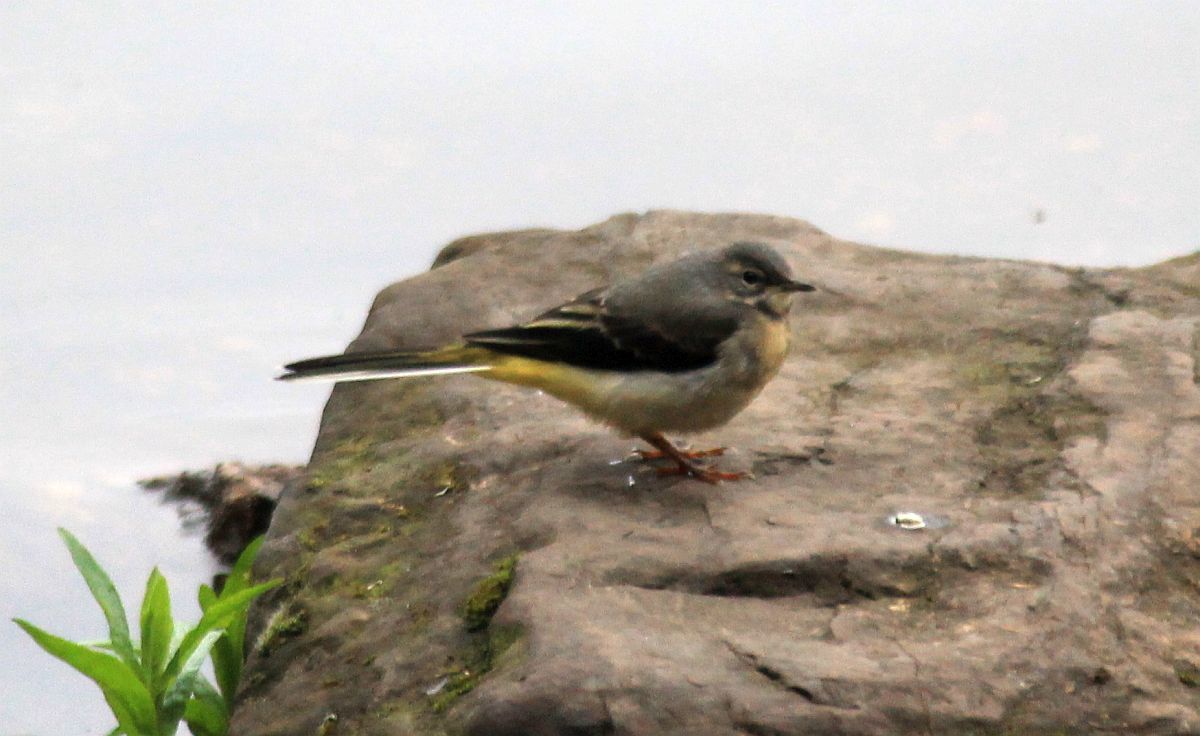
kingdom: Animalia
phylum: Chordata
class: Aves
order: Passeriformes
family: Motacillidae
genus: Motacilla
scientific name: Motacilla cinerea
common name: Grey wagtail
